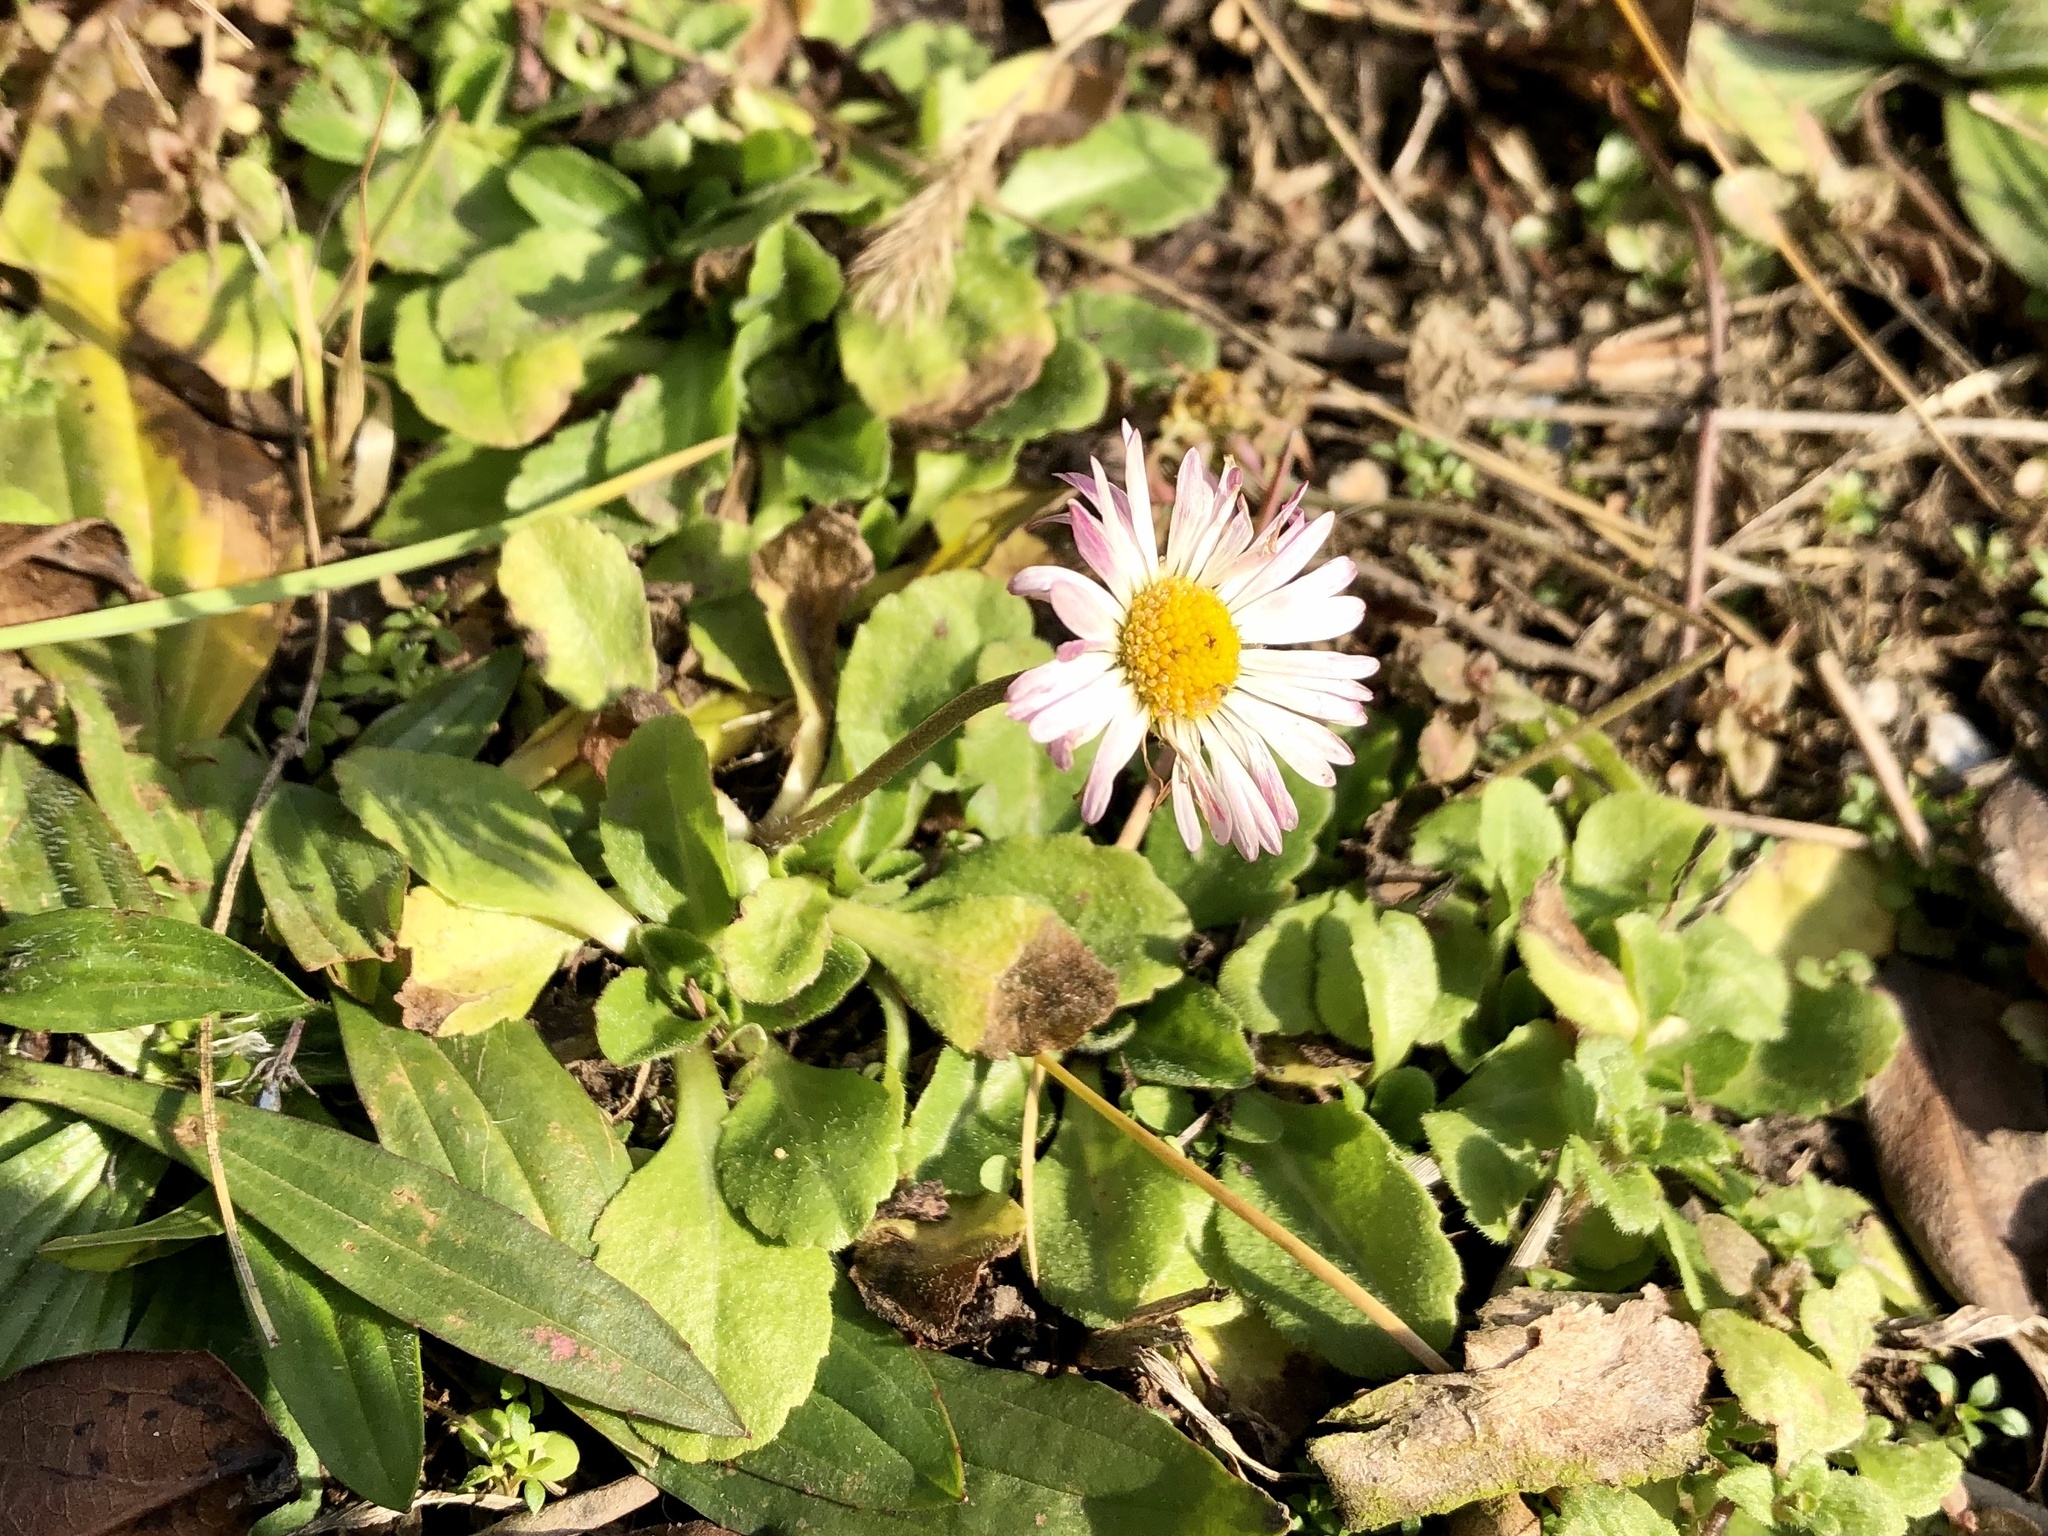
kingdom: Plantae
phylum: Tracheophyta
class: Magnoliopsida
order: Asterales
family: Asteraceae
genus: Bellis
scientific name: Bellis perennis
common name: Lawndaisy
